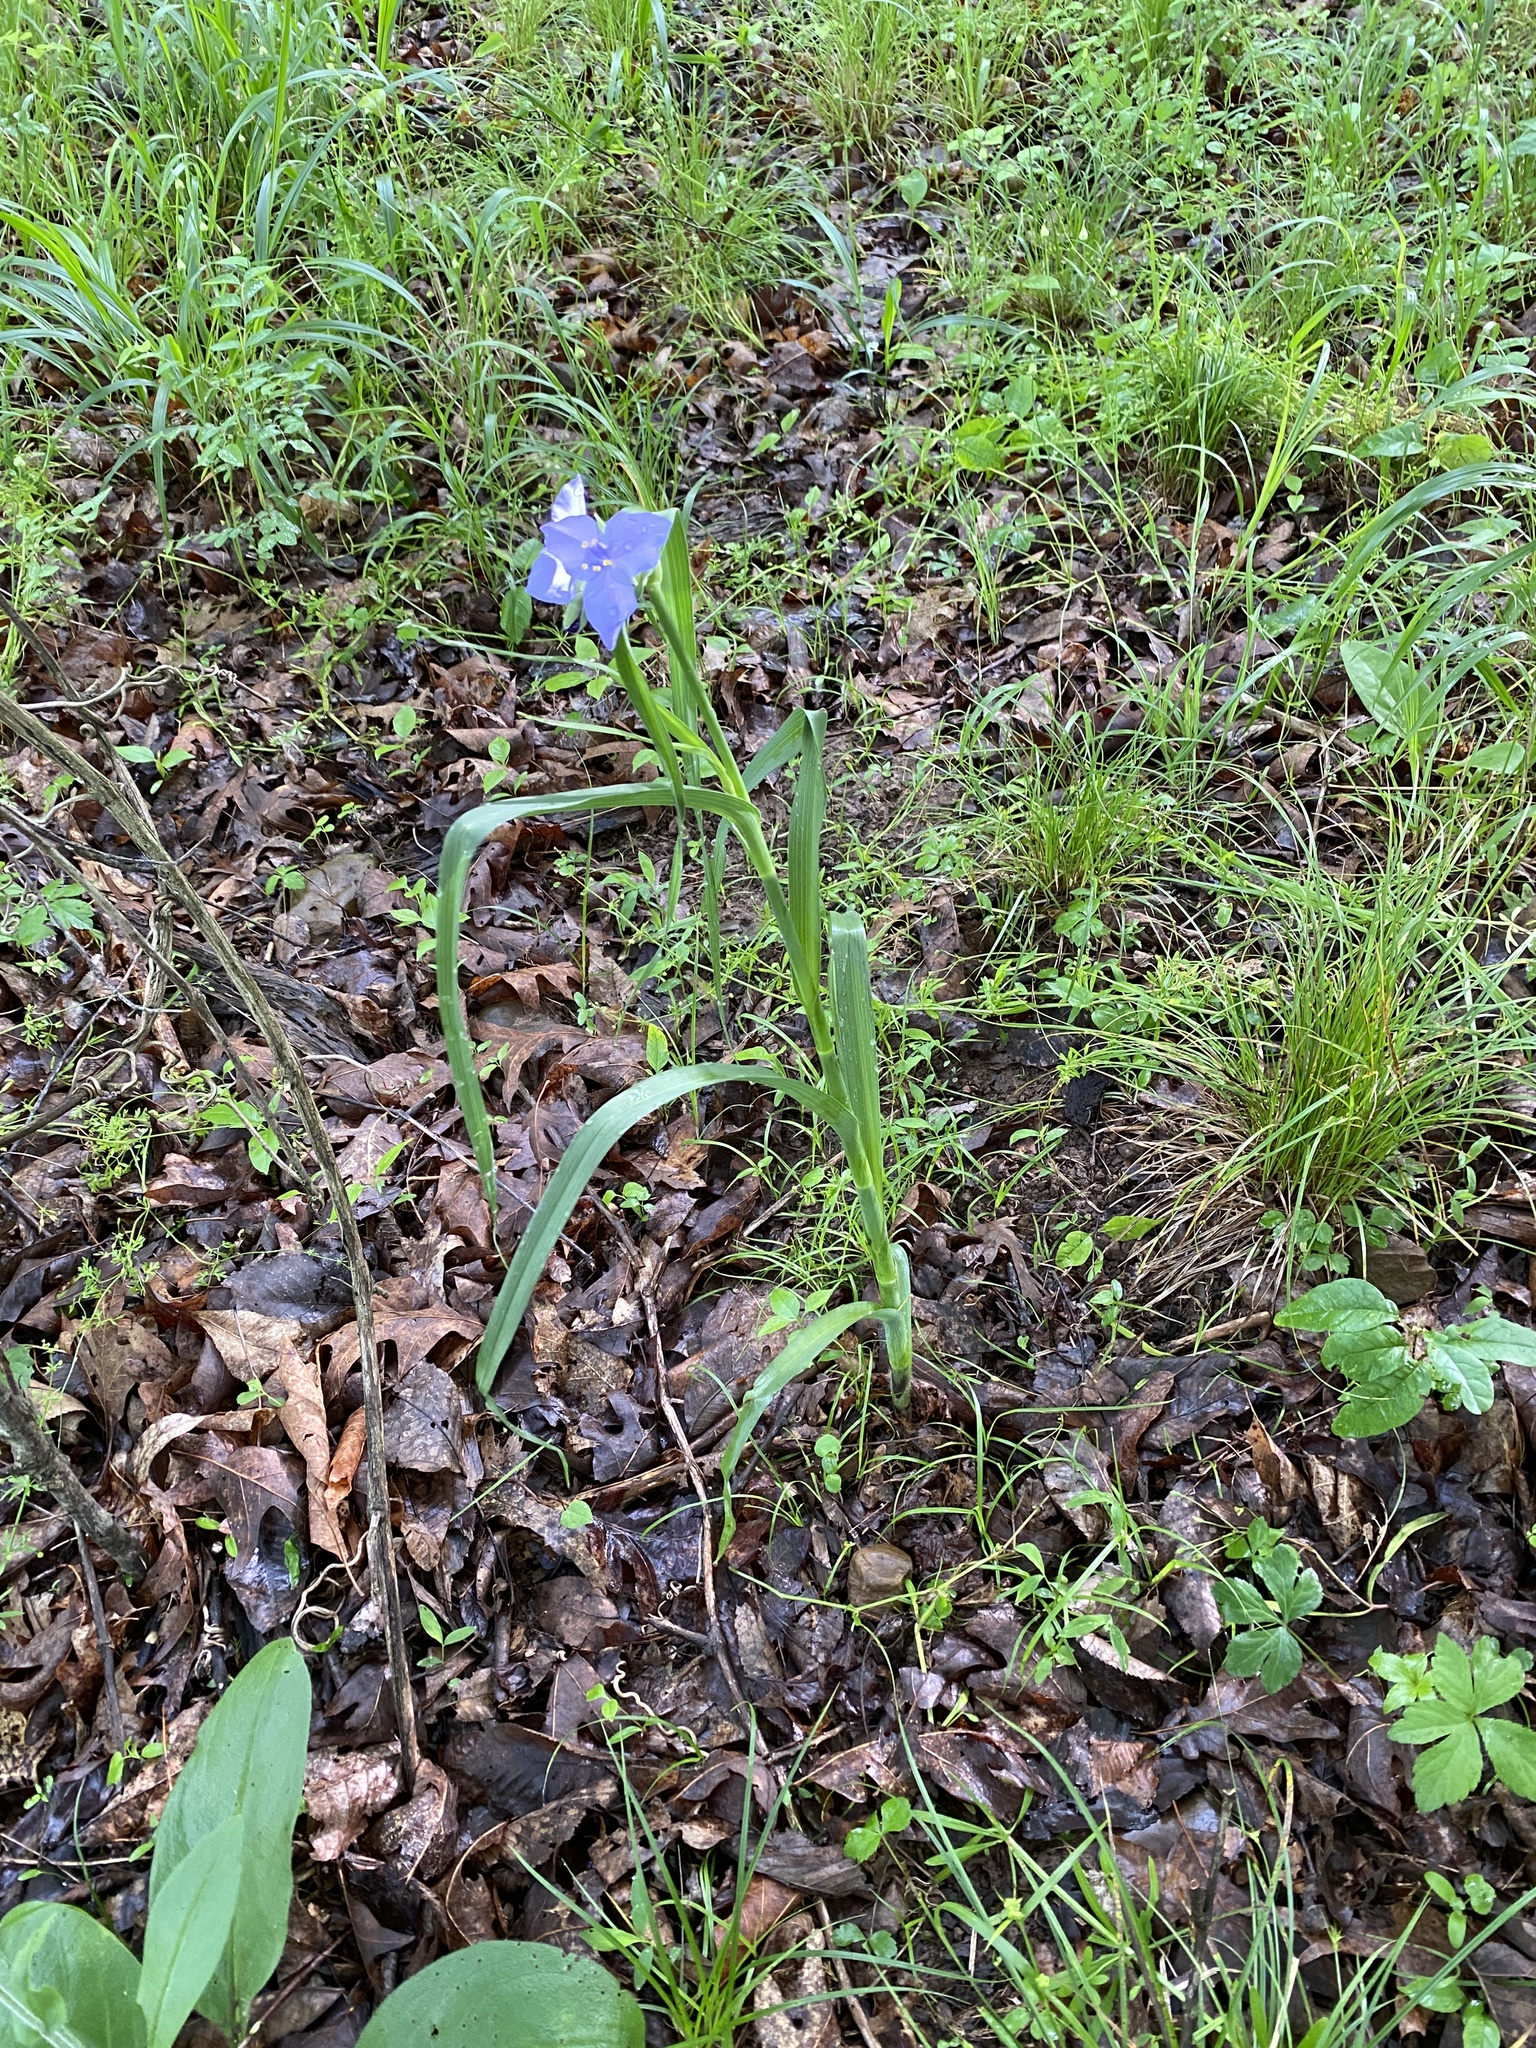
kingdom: Plantae
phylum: Tracheophyta
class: Liliopsida
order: Commelinales
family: Commelinaceae
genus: Tradescantia
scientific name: Tradescantia ohiensis
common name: Ohio spiderwort
